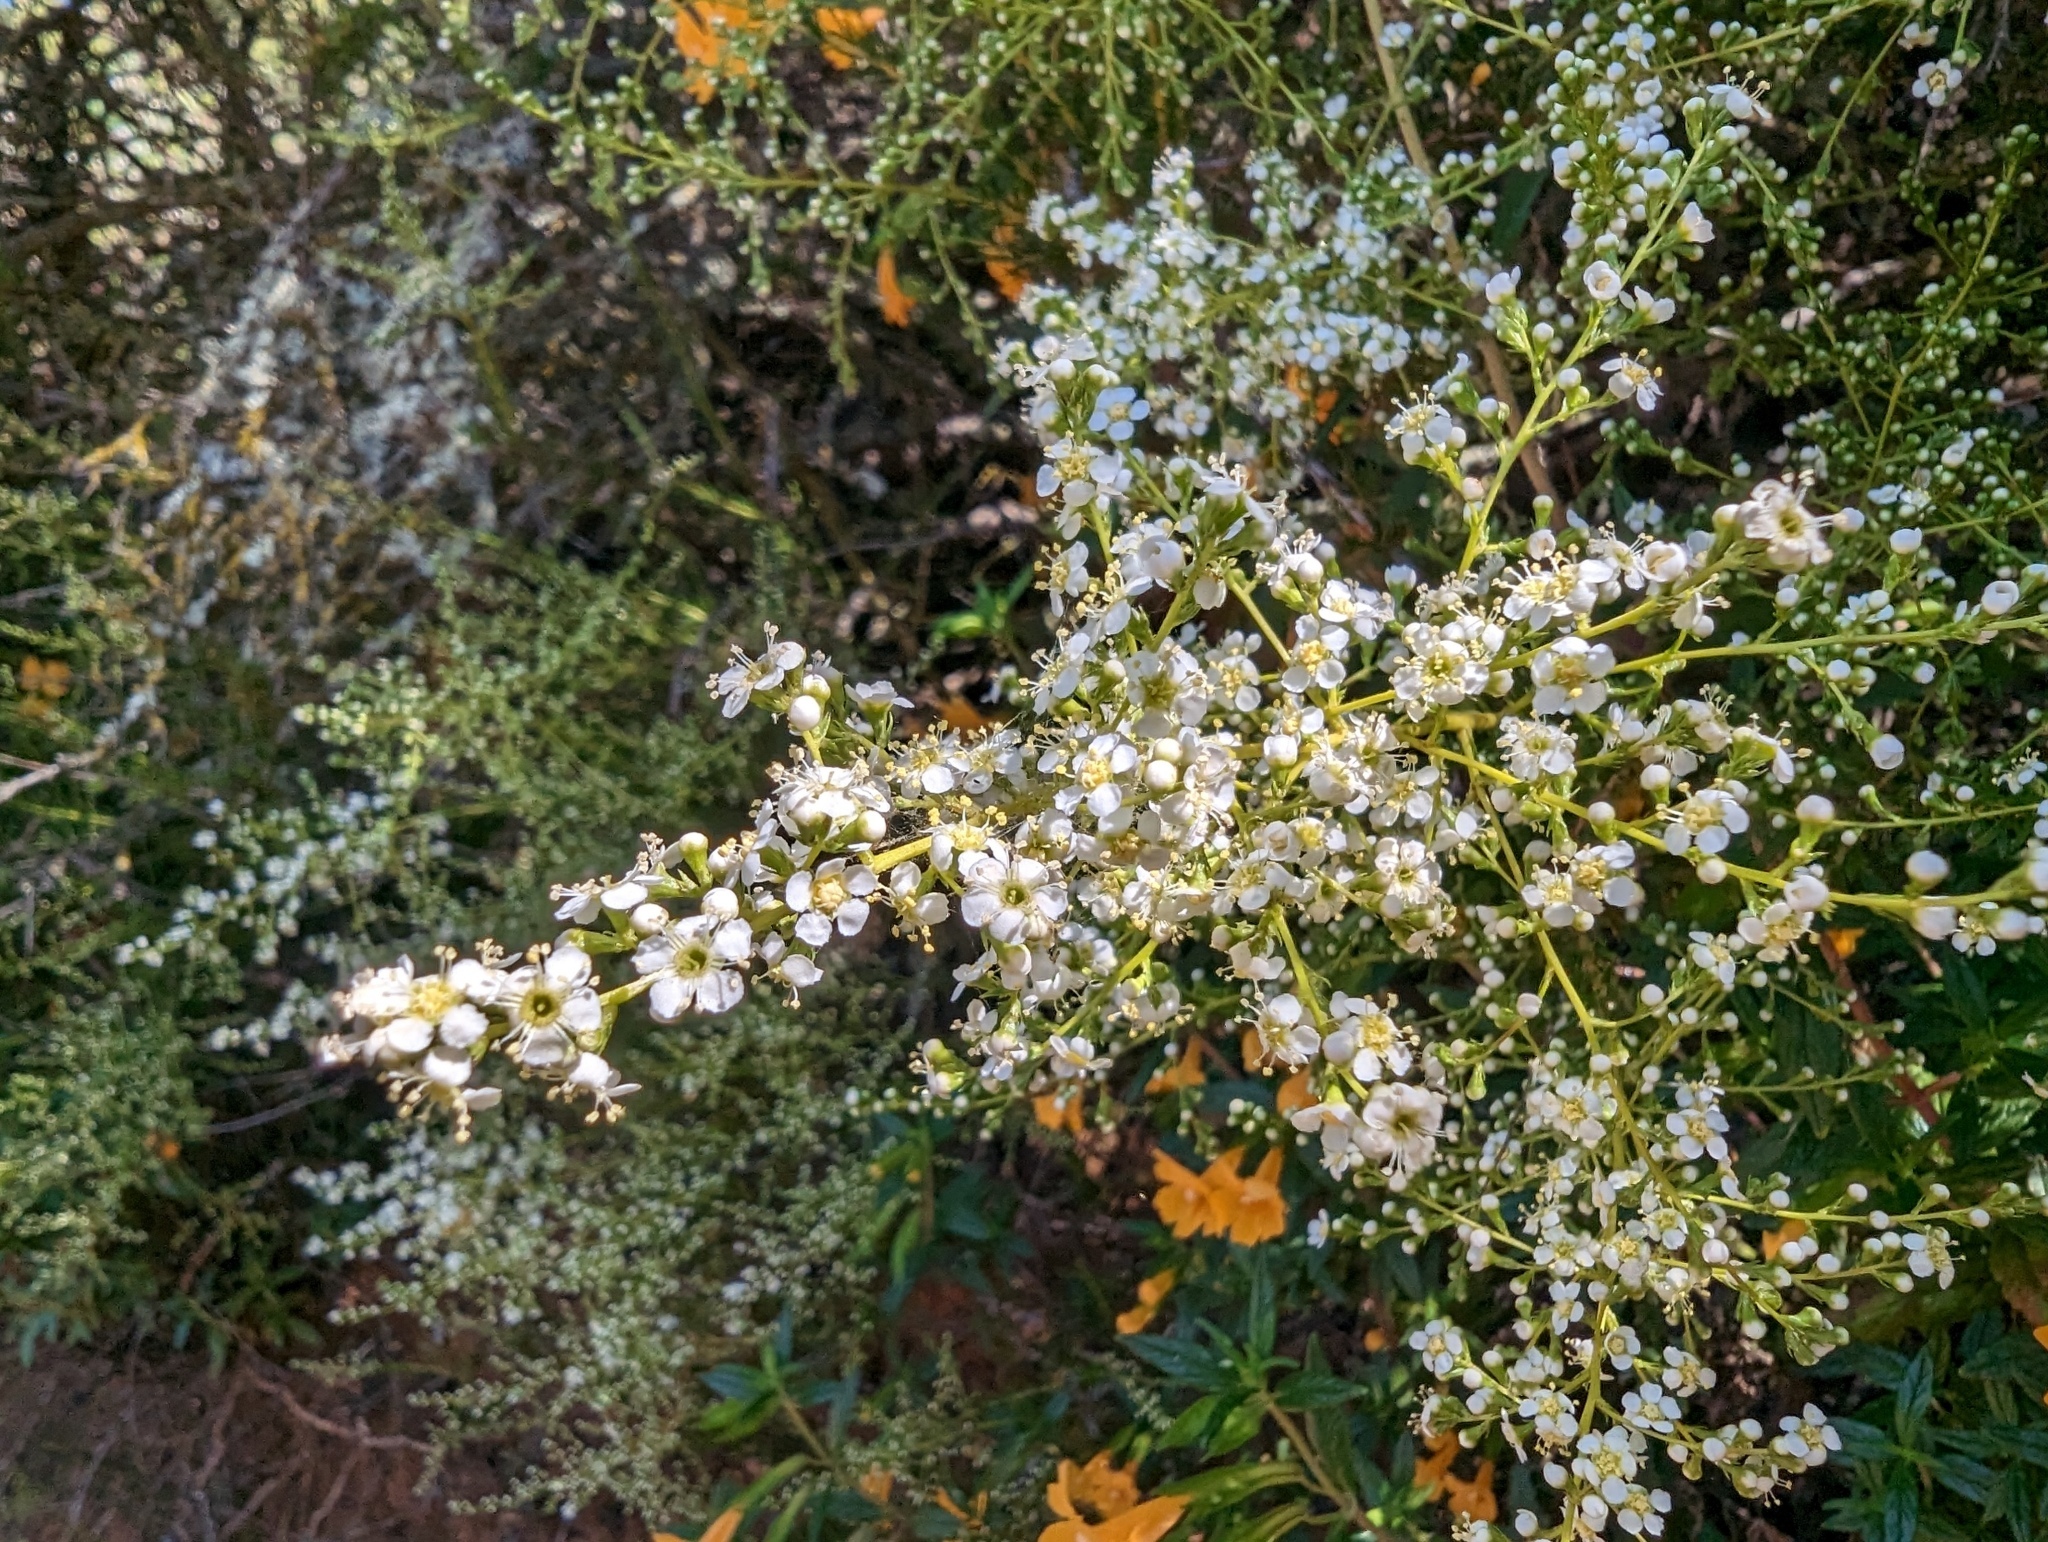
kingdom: Plantae
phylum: Tracheophyta
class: Magnoliopsida
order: Rosales
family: Rosaceae
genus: Adenostoma
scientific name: Adenostoma fasciculatum
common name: Chamise
